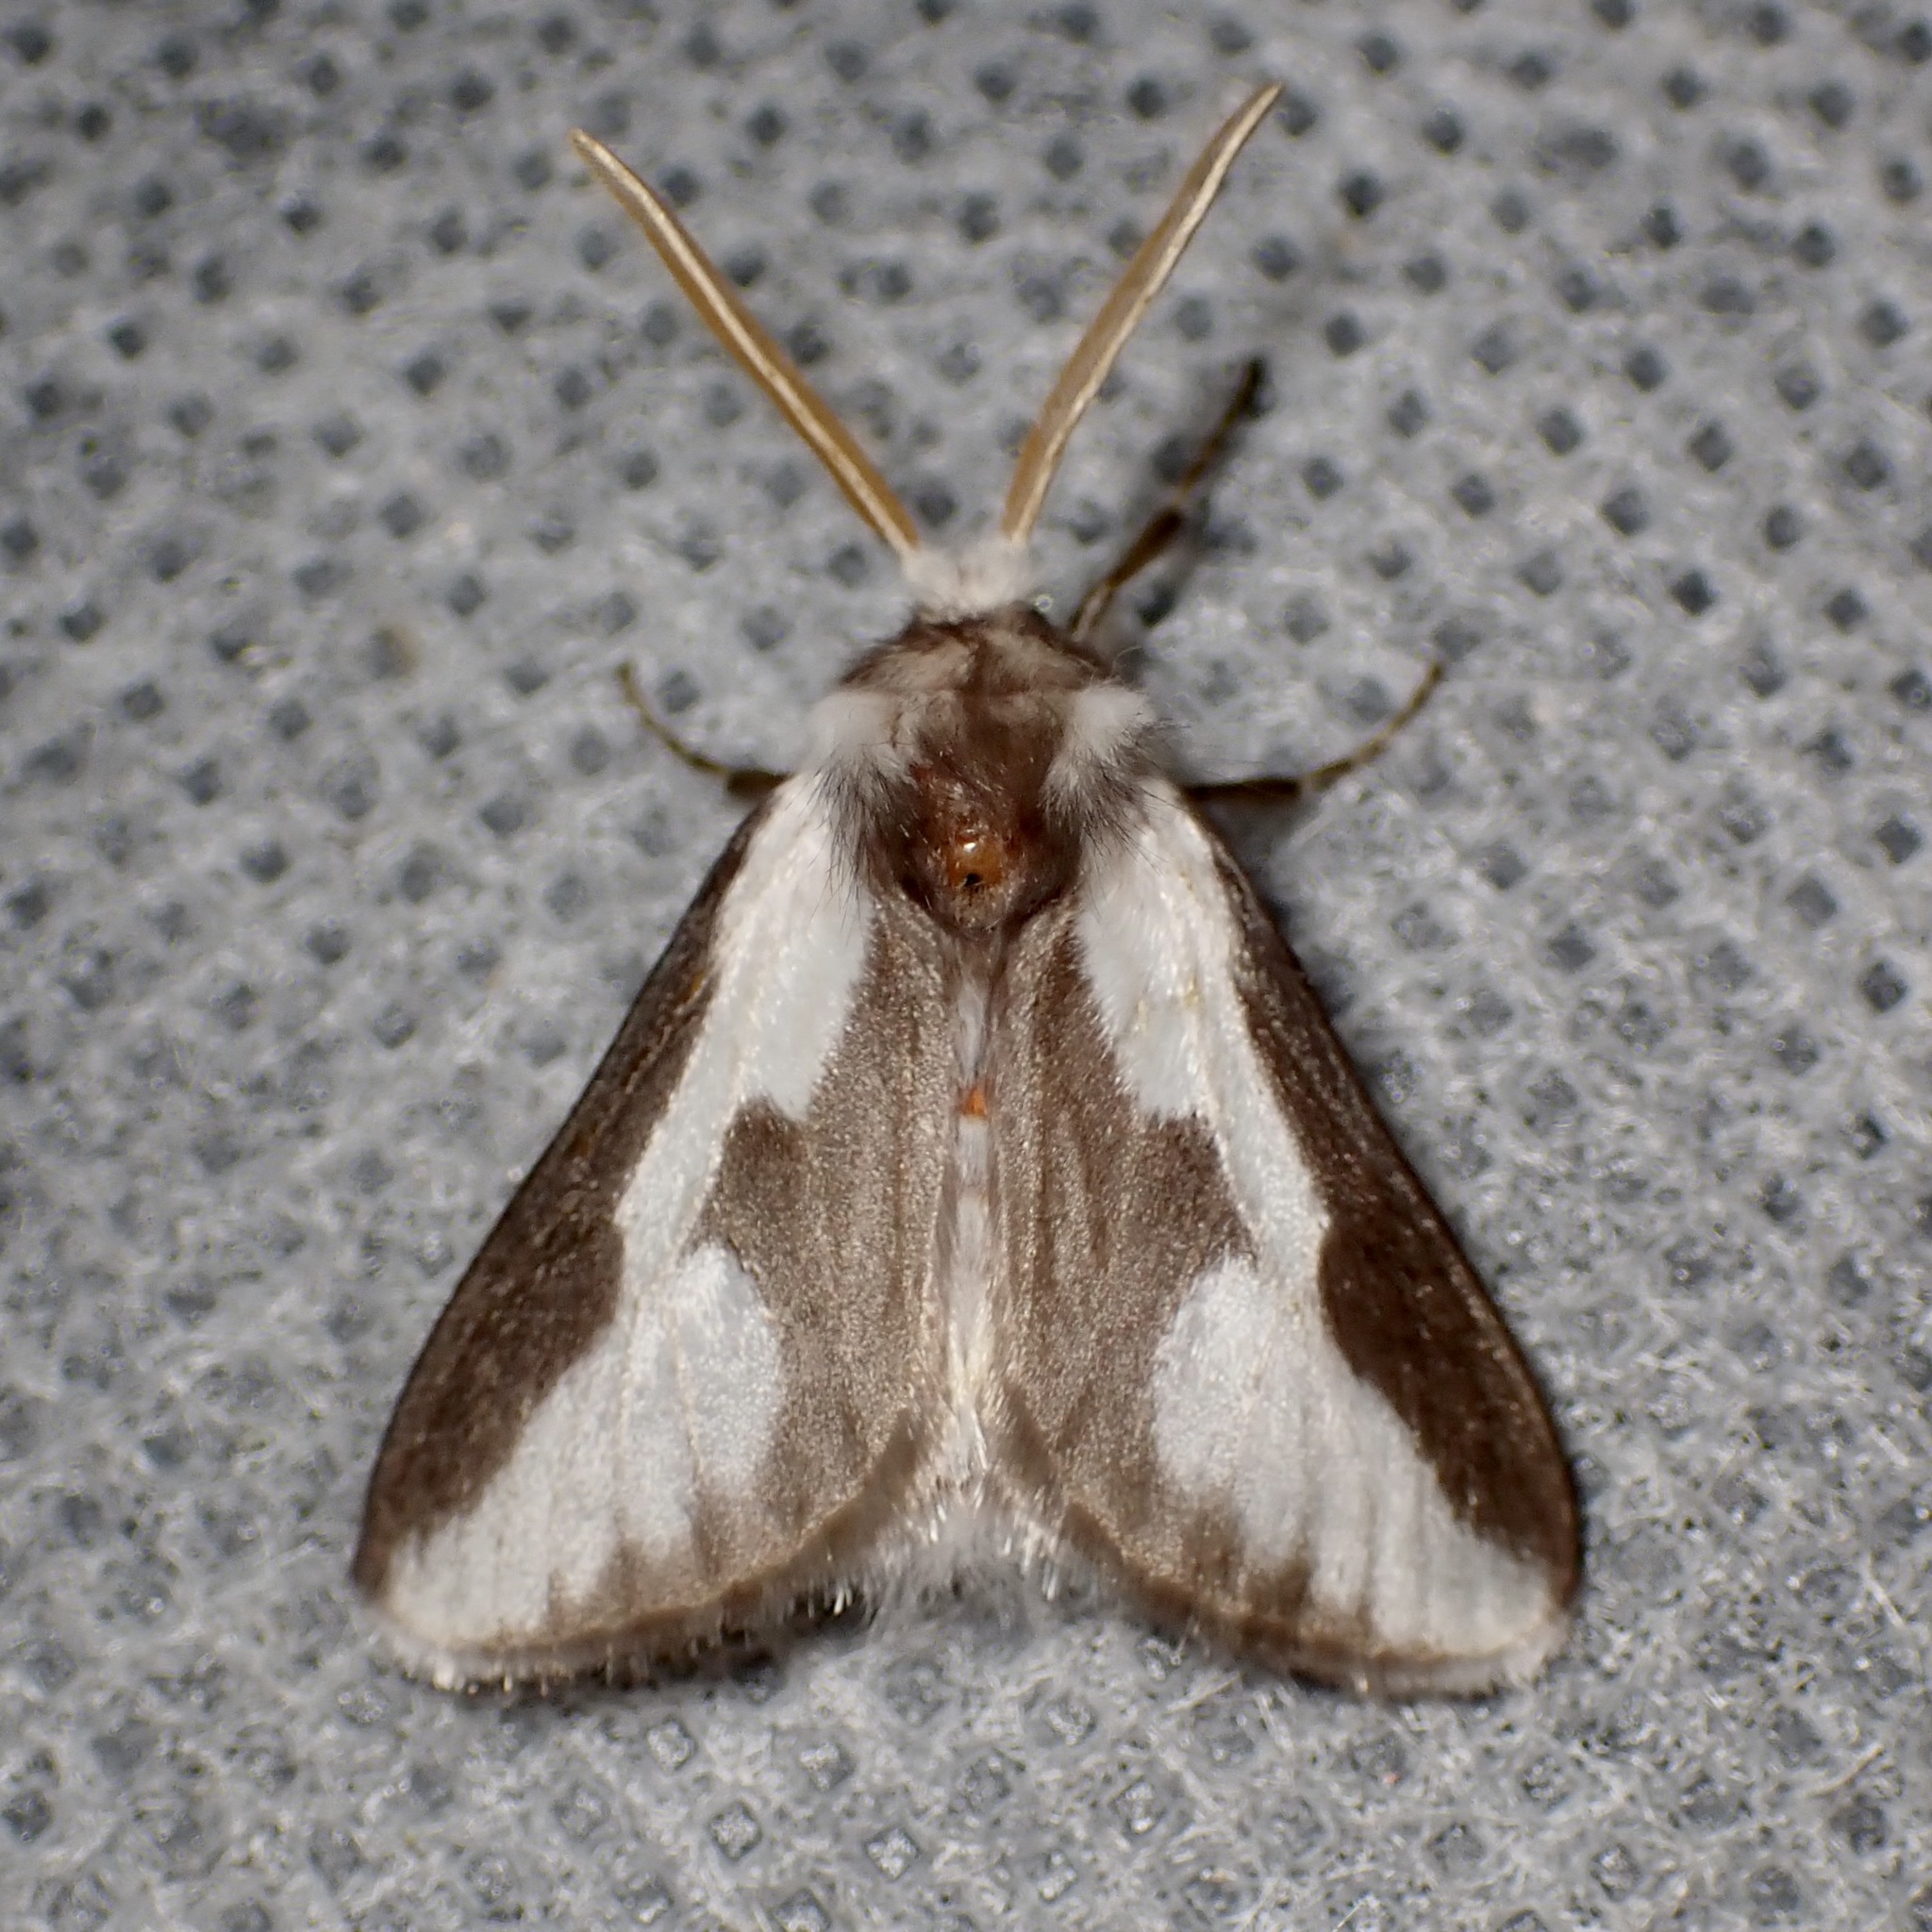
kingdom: Animalia
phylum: Arthropoda
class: Insecta
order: Lepidoptera
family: Megalopygidae
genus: Norape
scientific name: Norape tener
